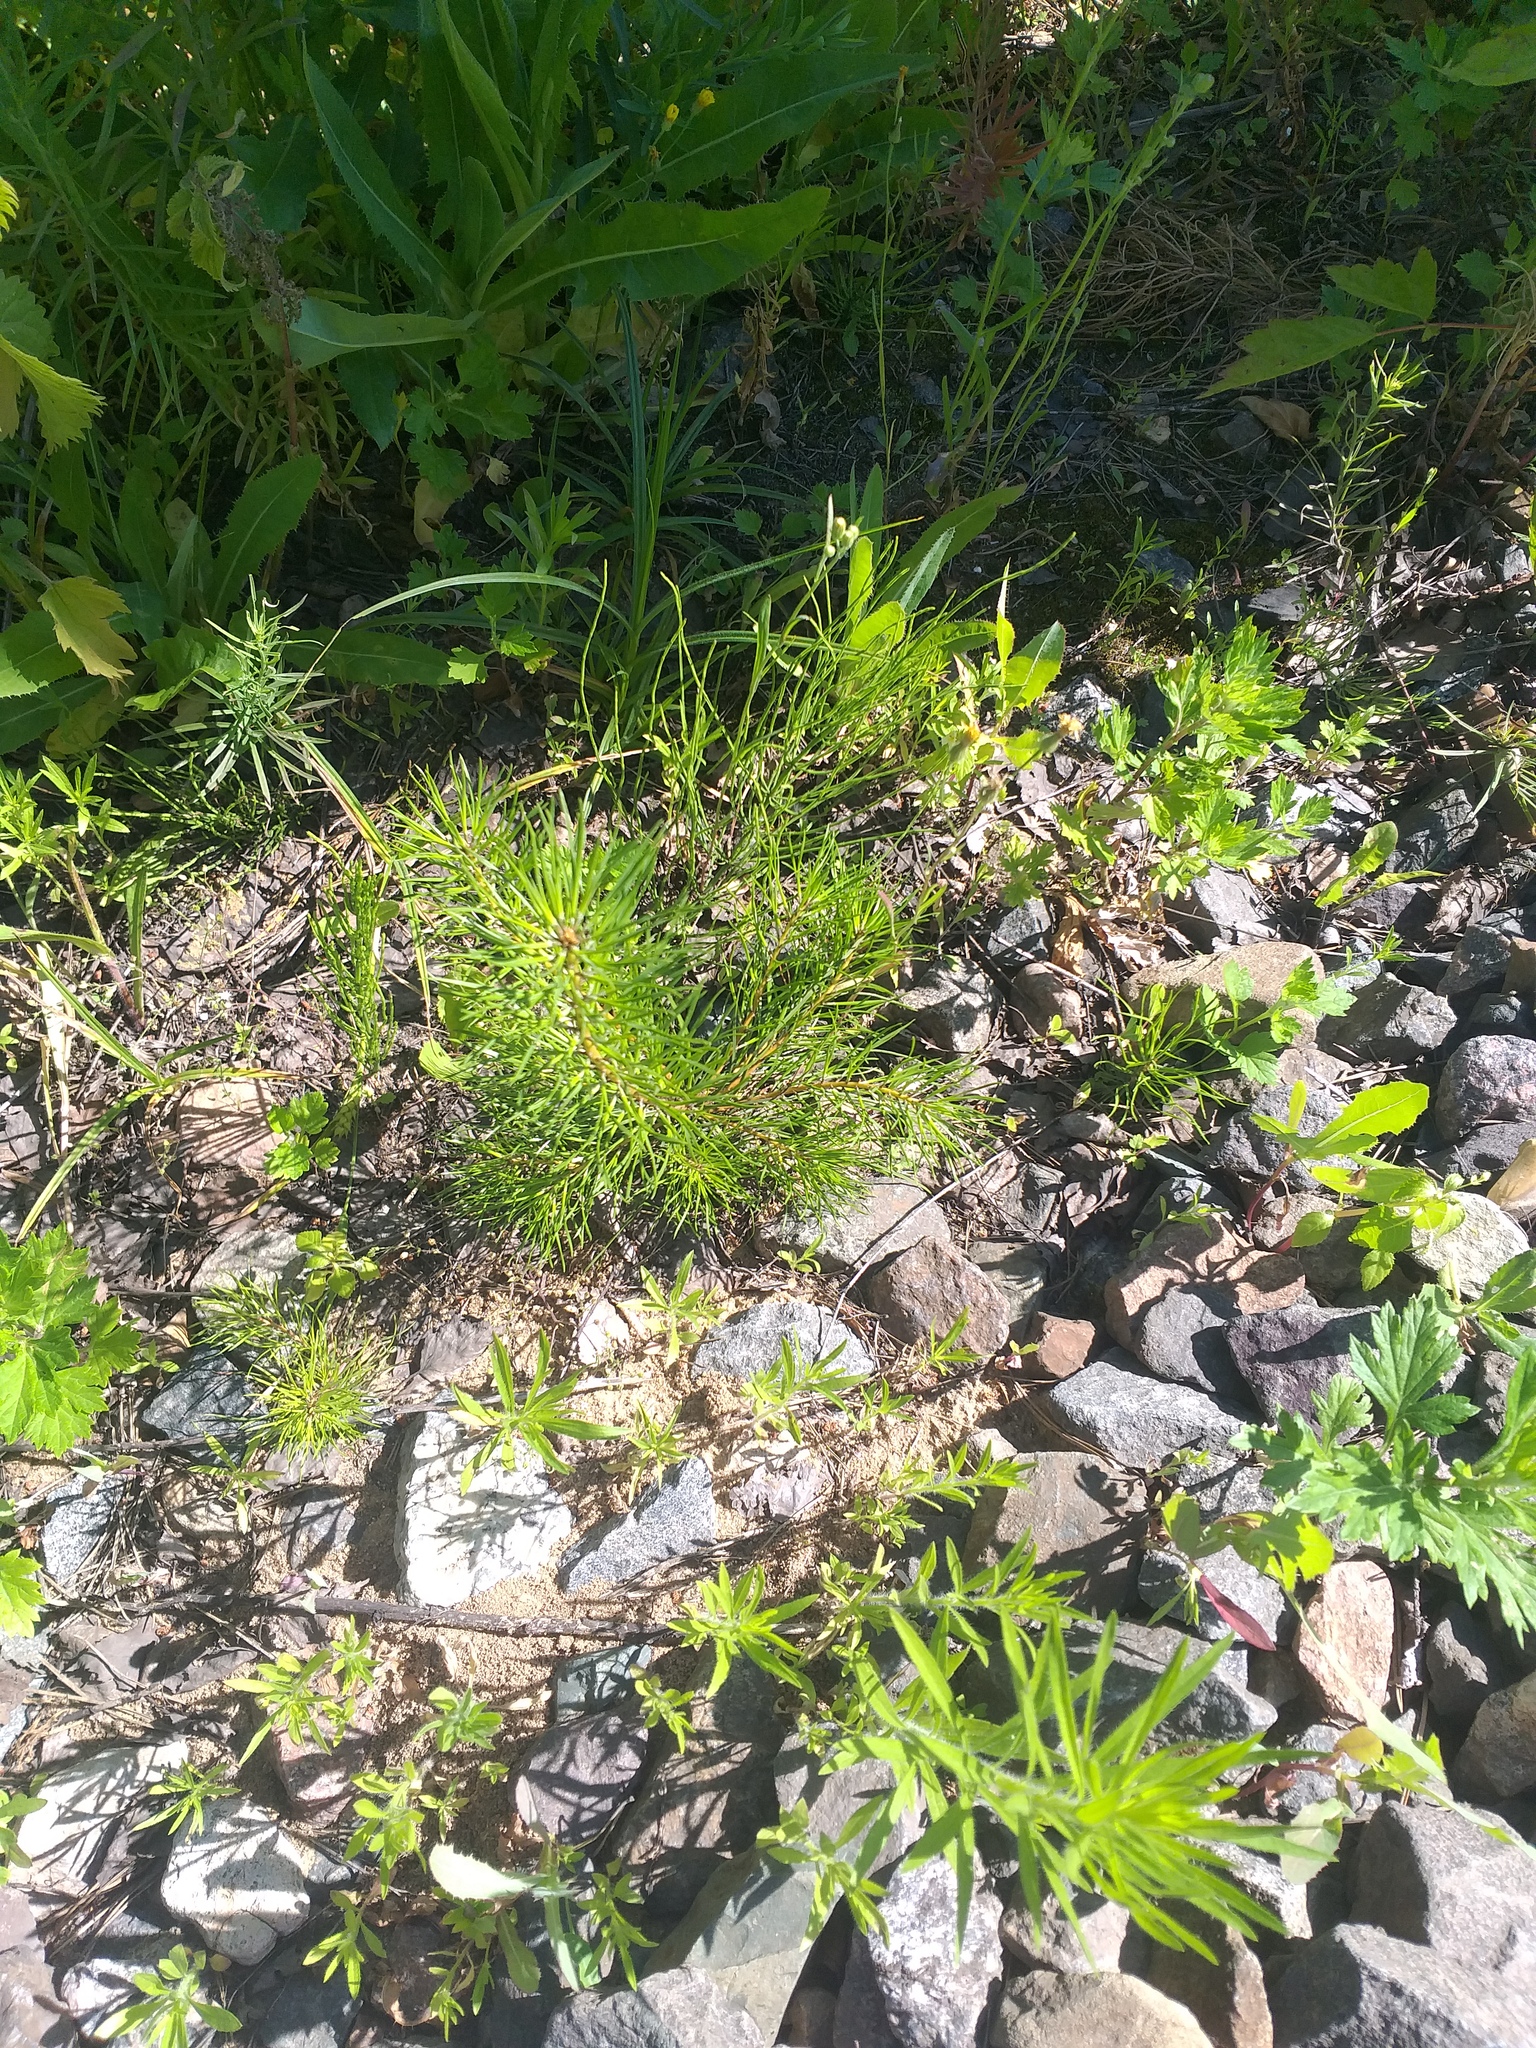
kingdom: Plantae
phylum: Tracheophyta
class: Pinopsida
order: Pinales
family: Pinaceae
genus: Pinus
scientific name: Pinus sylvestris
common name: Scots pine
